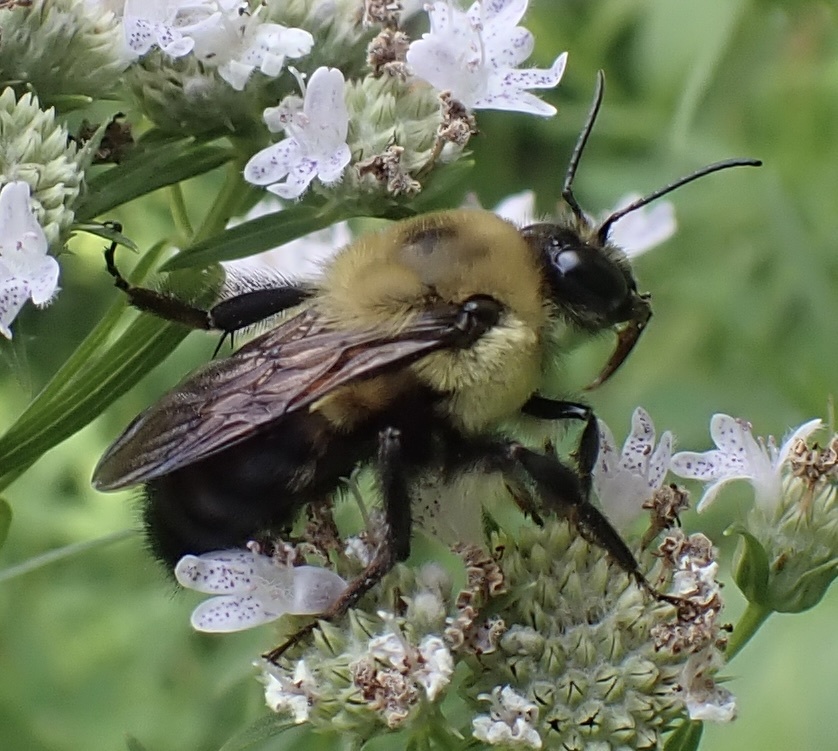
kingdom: Animalia
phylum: Arthropoda
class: Insecta
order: Hymenoptera
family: Apidae
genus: Bombus
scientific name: Bombus griseocollis
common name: Brown-belted bumble bee
